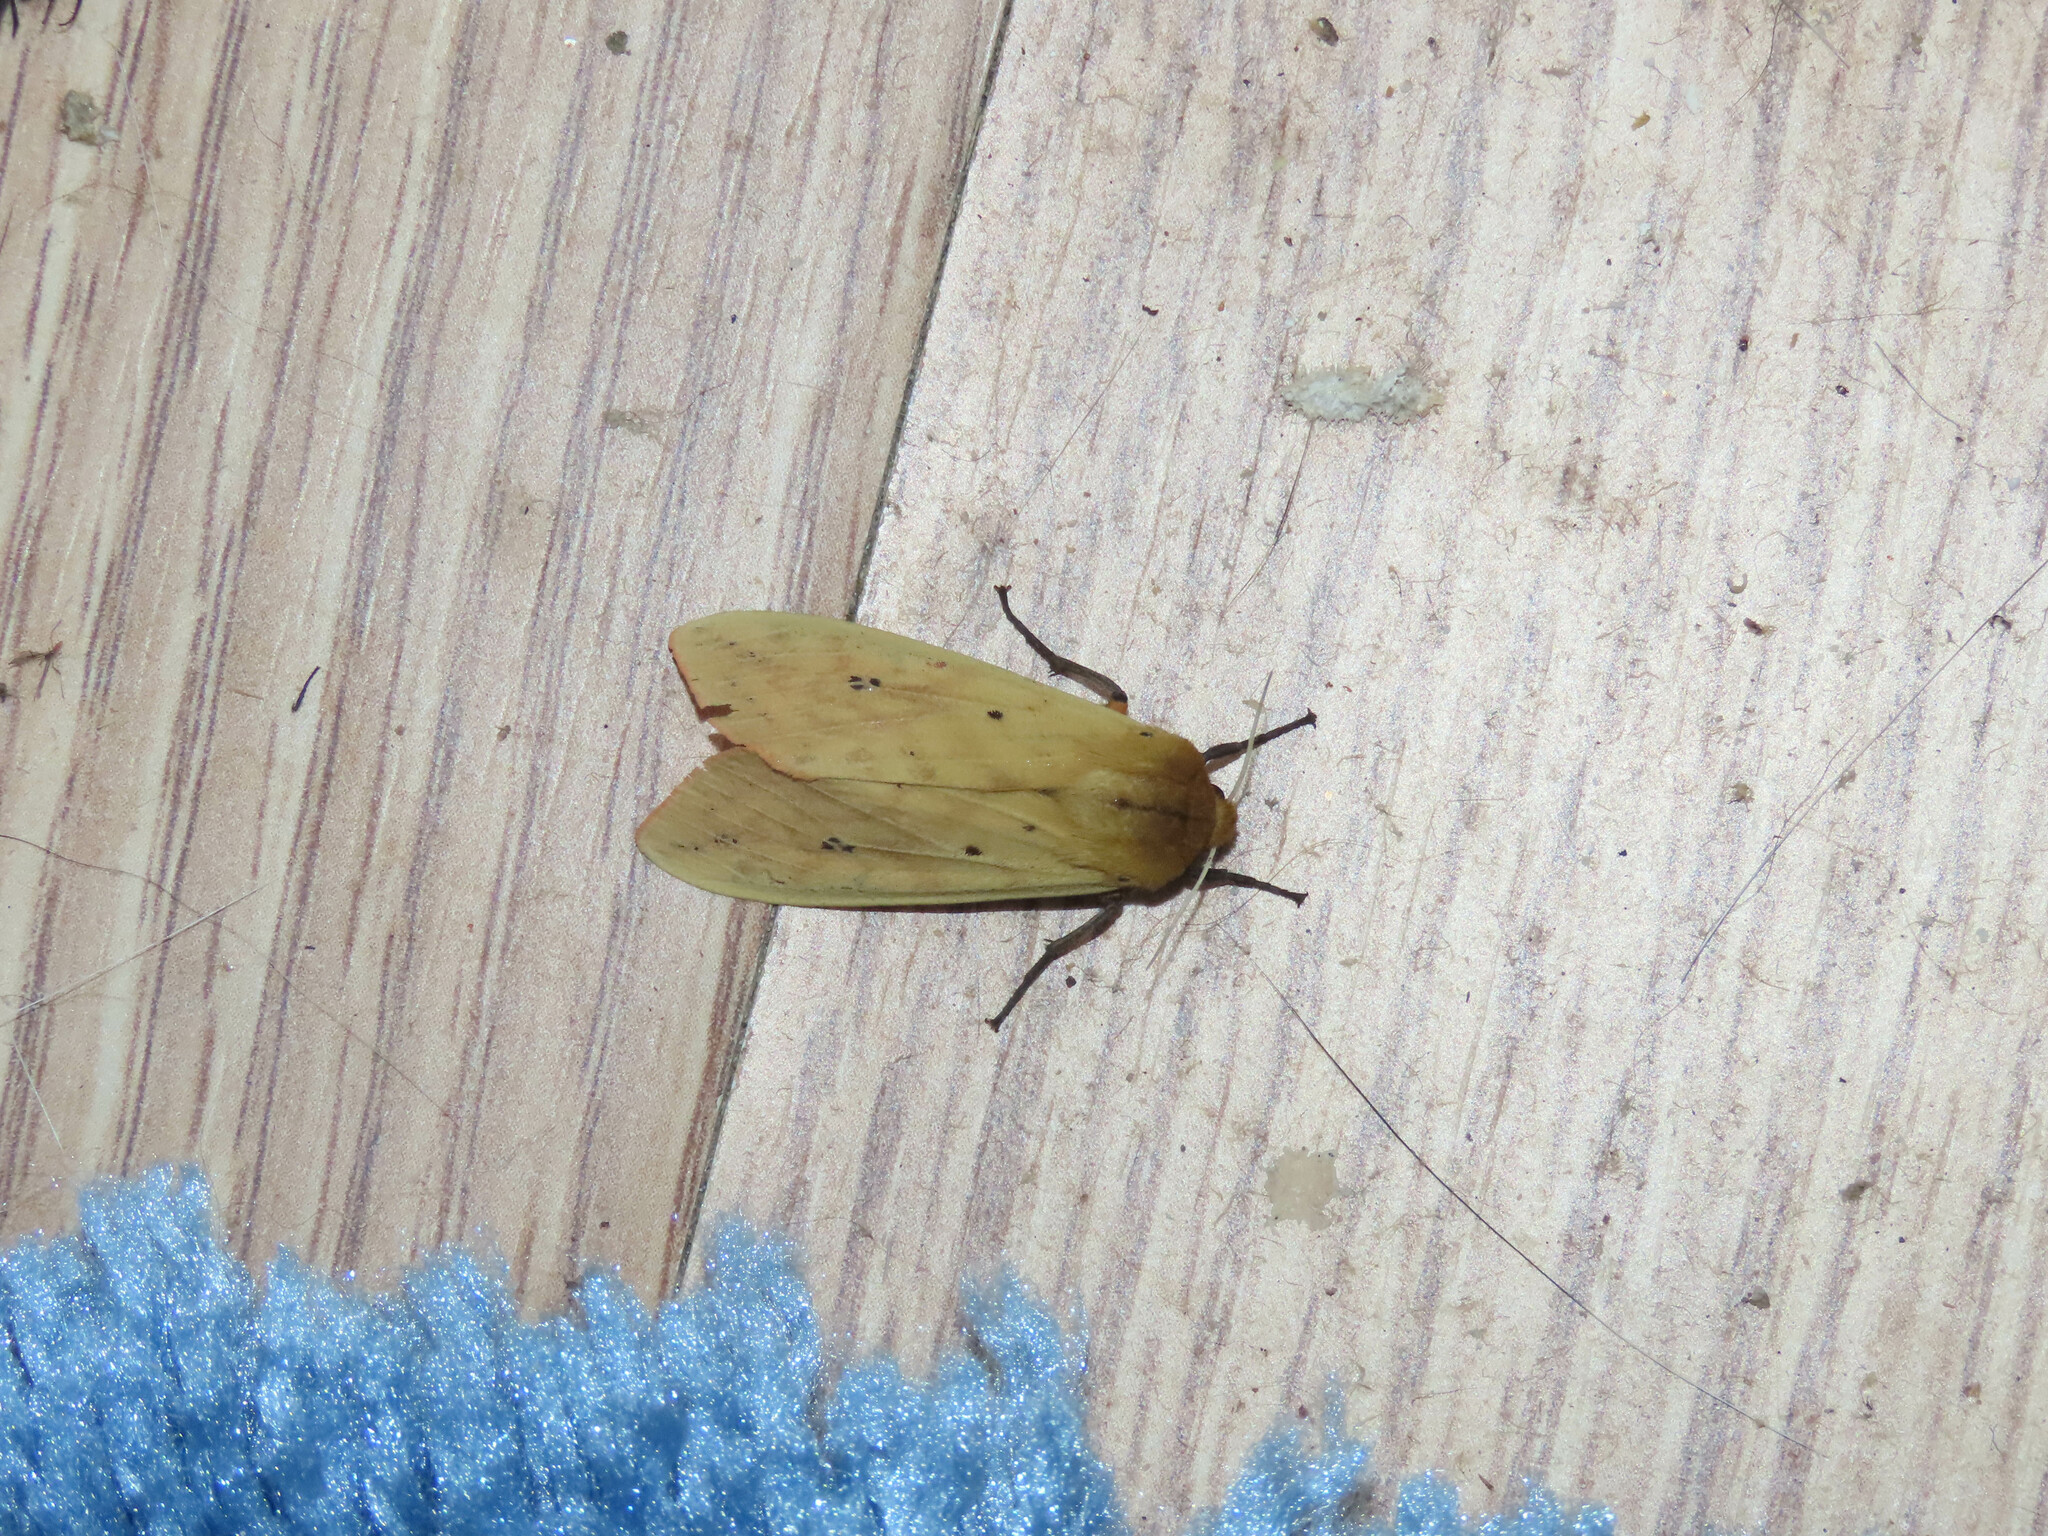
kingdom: Animalia
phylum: Arthropoda
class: Insecta
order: Lepidoptera
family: Erebidae
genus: Pyrrharctia
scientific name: Pyrrharctia isabella
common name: Isabella tiger moth
